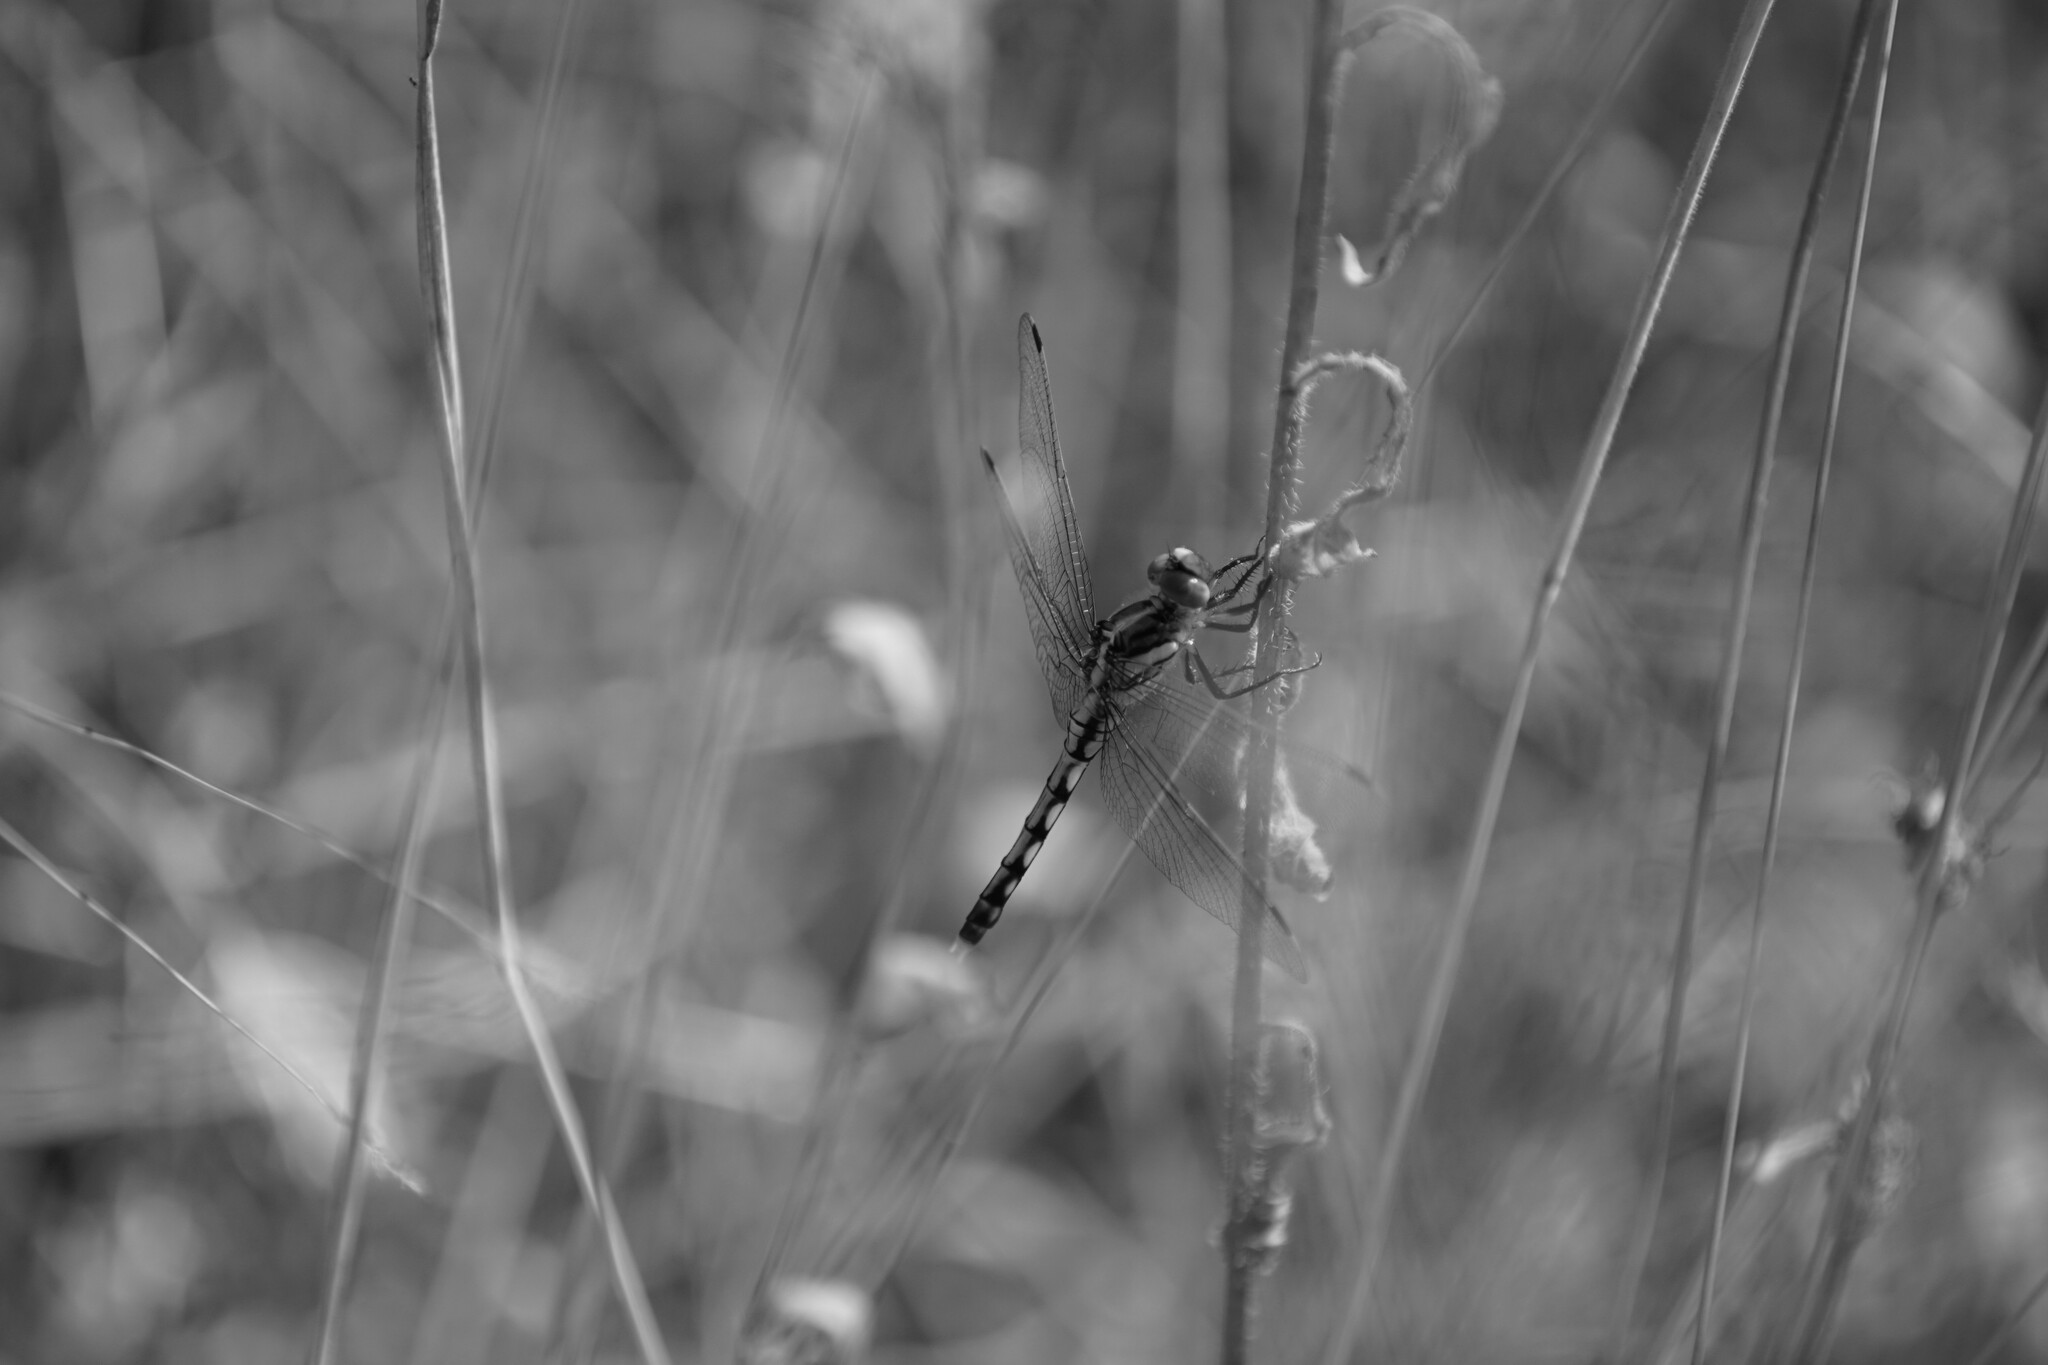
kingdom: Animalia
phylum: Arthropoda
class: Insecta
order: Odonata
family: Libellulidae
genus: Orthetrum
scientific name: Orthetrum albistylum
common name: White-tailed skimmer
